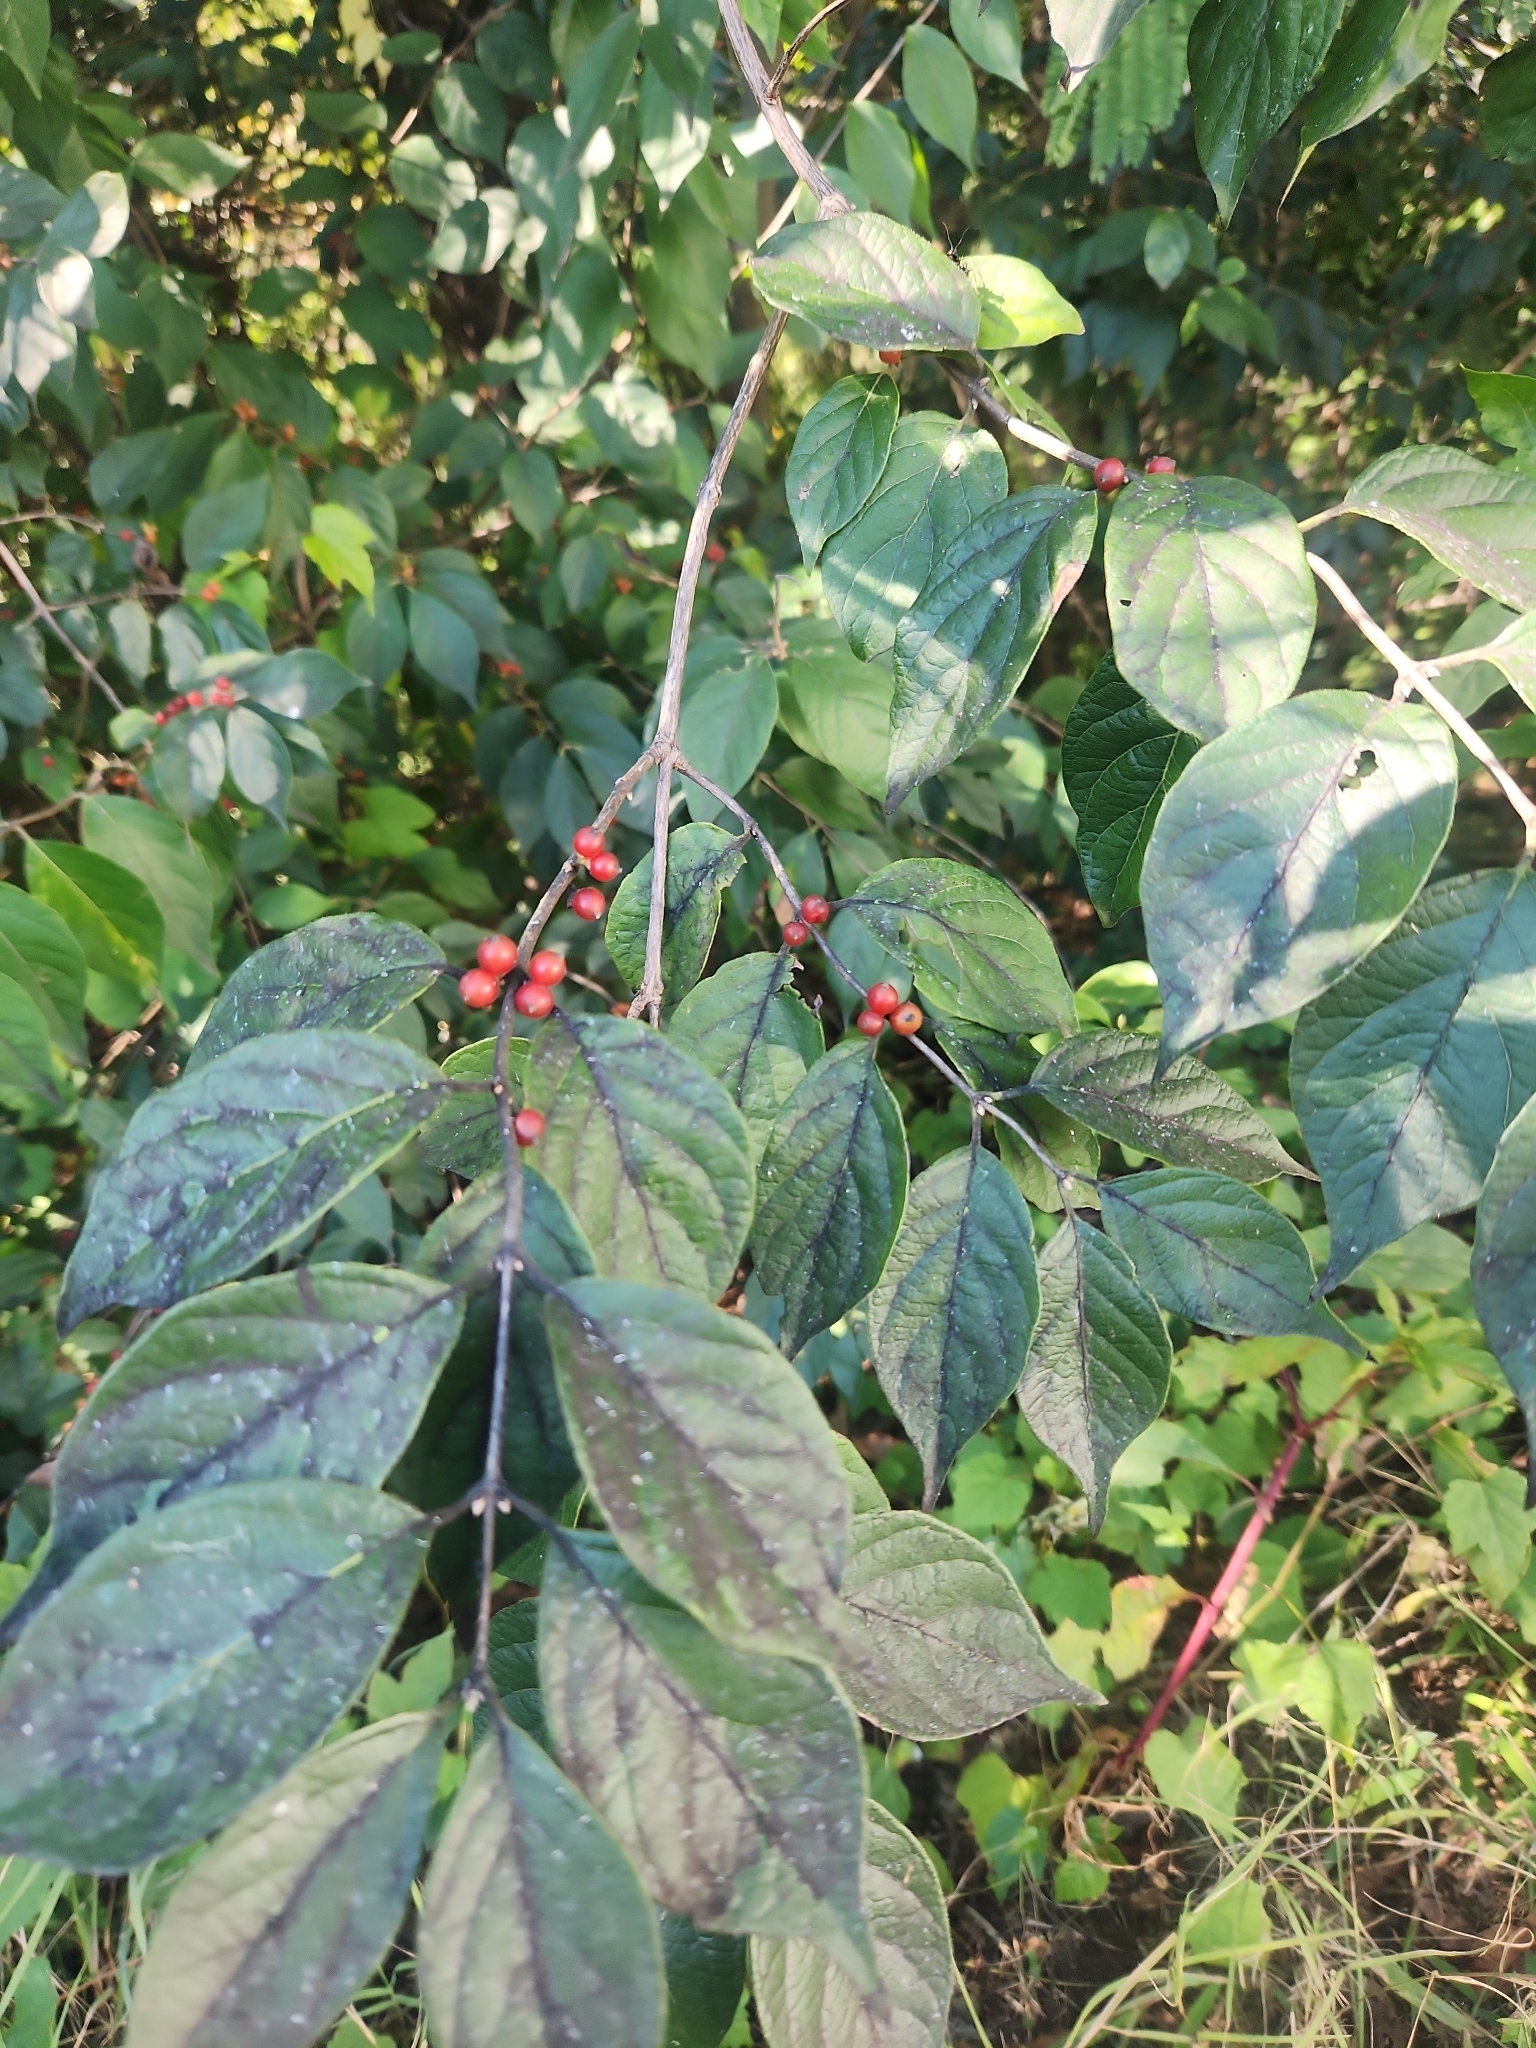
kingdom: Plantae
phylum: Tracheophyta
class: Magnoliopsida
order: Dipsacales
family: Caprifoliaceae
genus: Lonicera
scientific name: Lonicera maackii
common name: Amur honeysuckle
